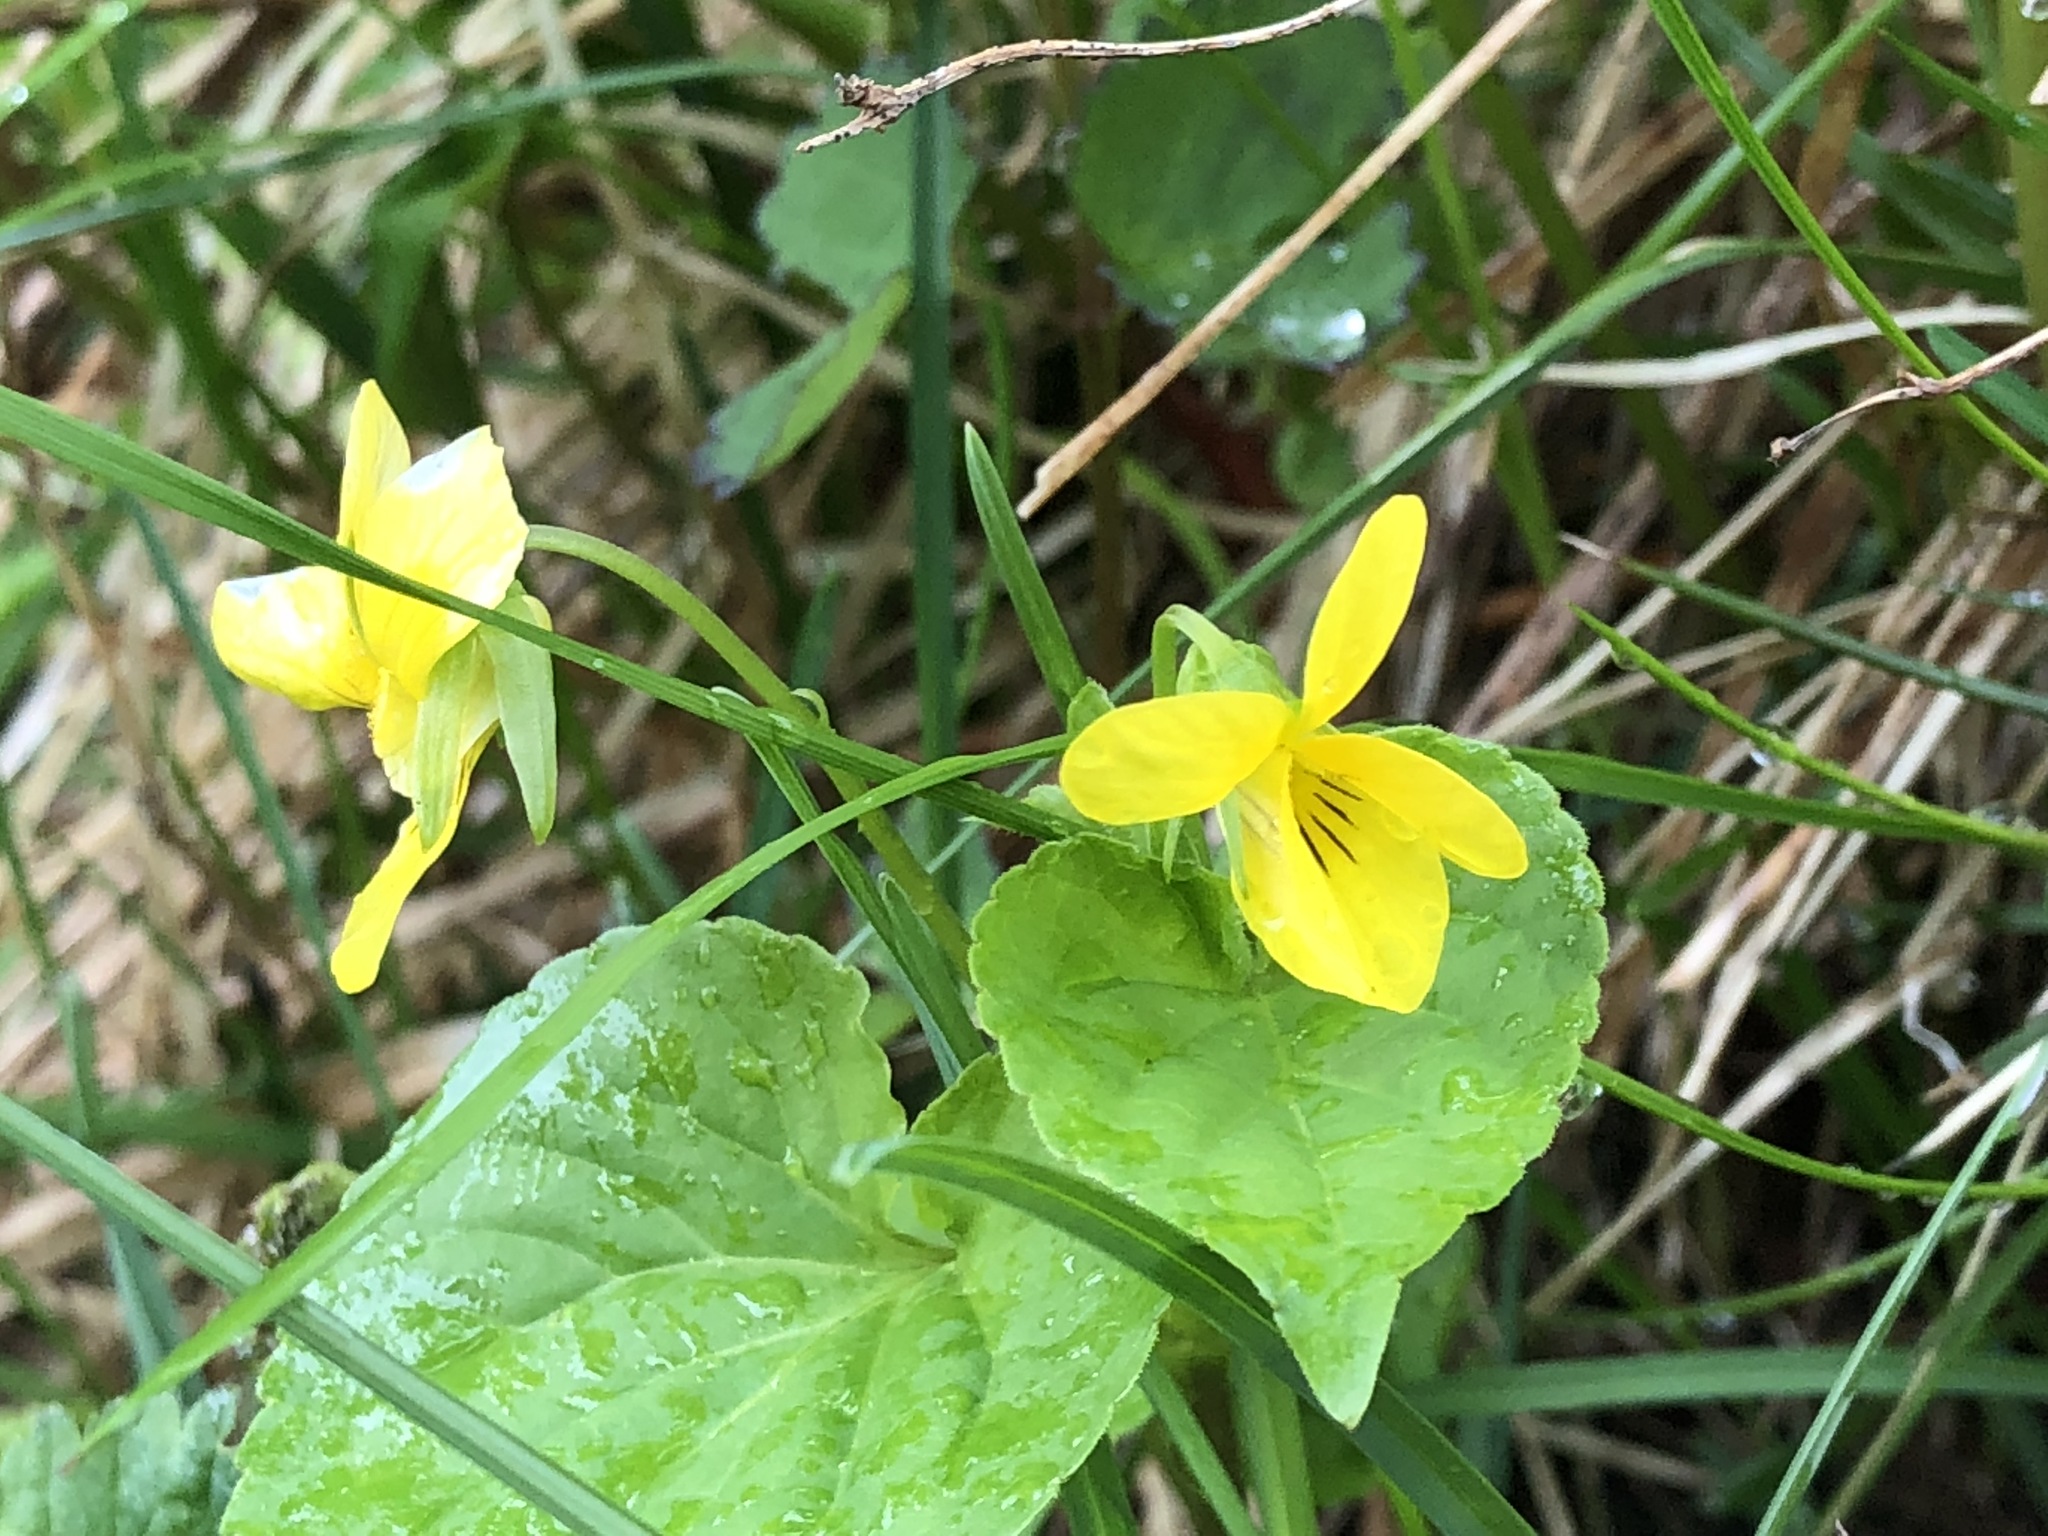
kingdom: Plantae
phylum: Tracheophyta
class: Magnoliopsida
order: Malpighiales
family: Violaceae
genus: Viola
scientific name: Viola glabella
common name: Stream violet
